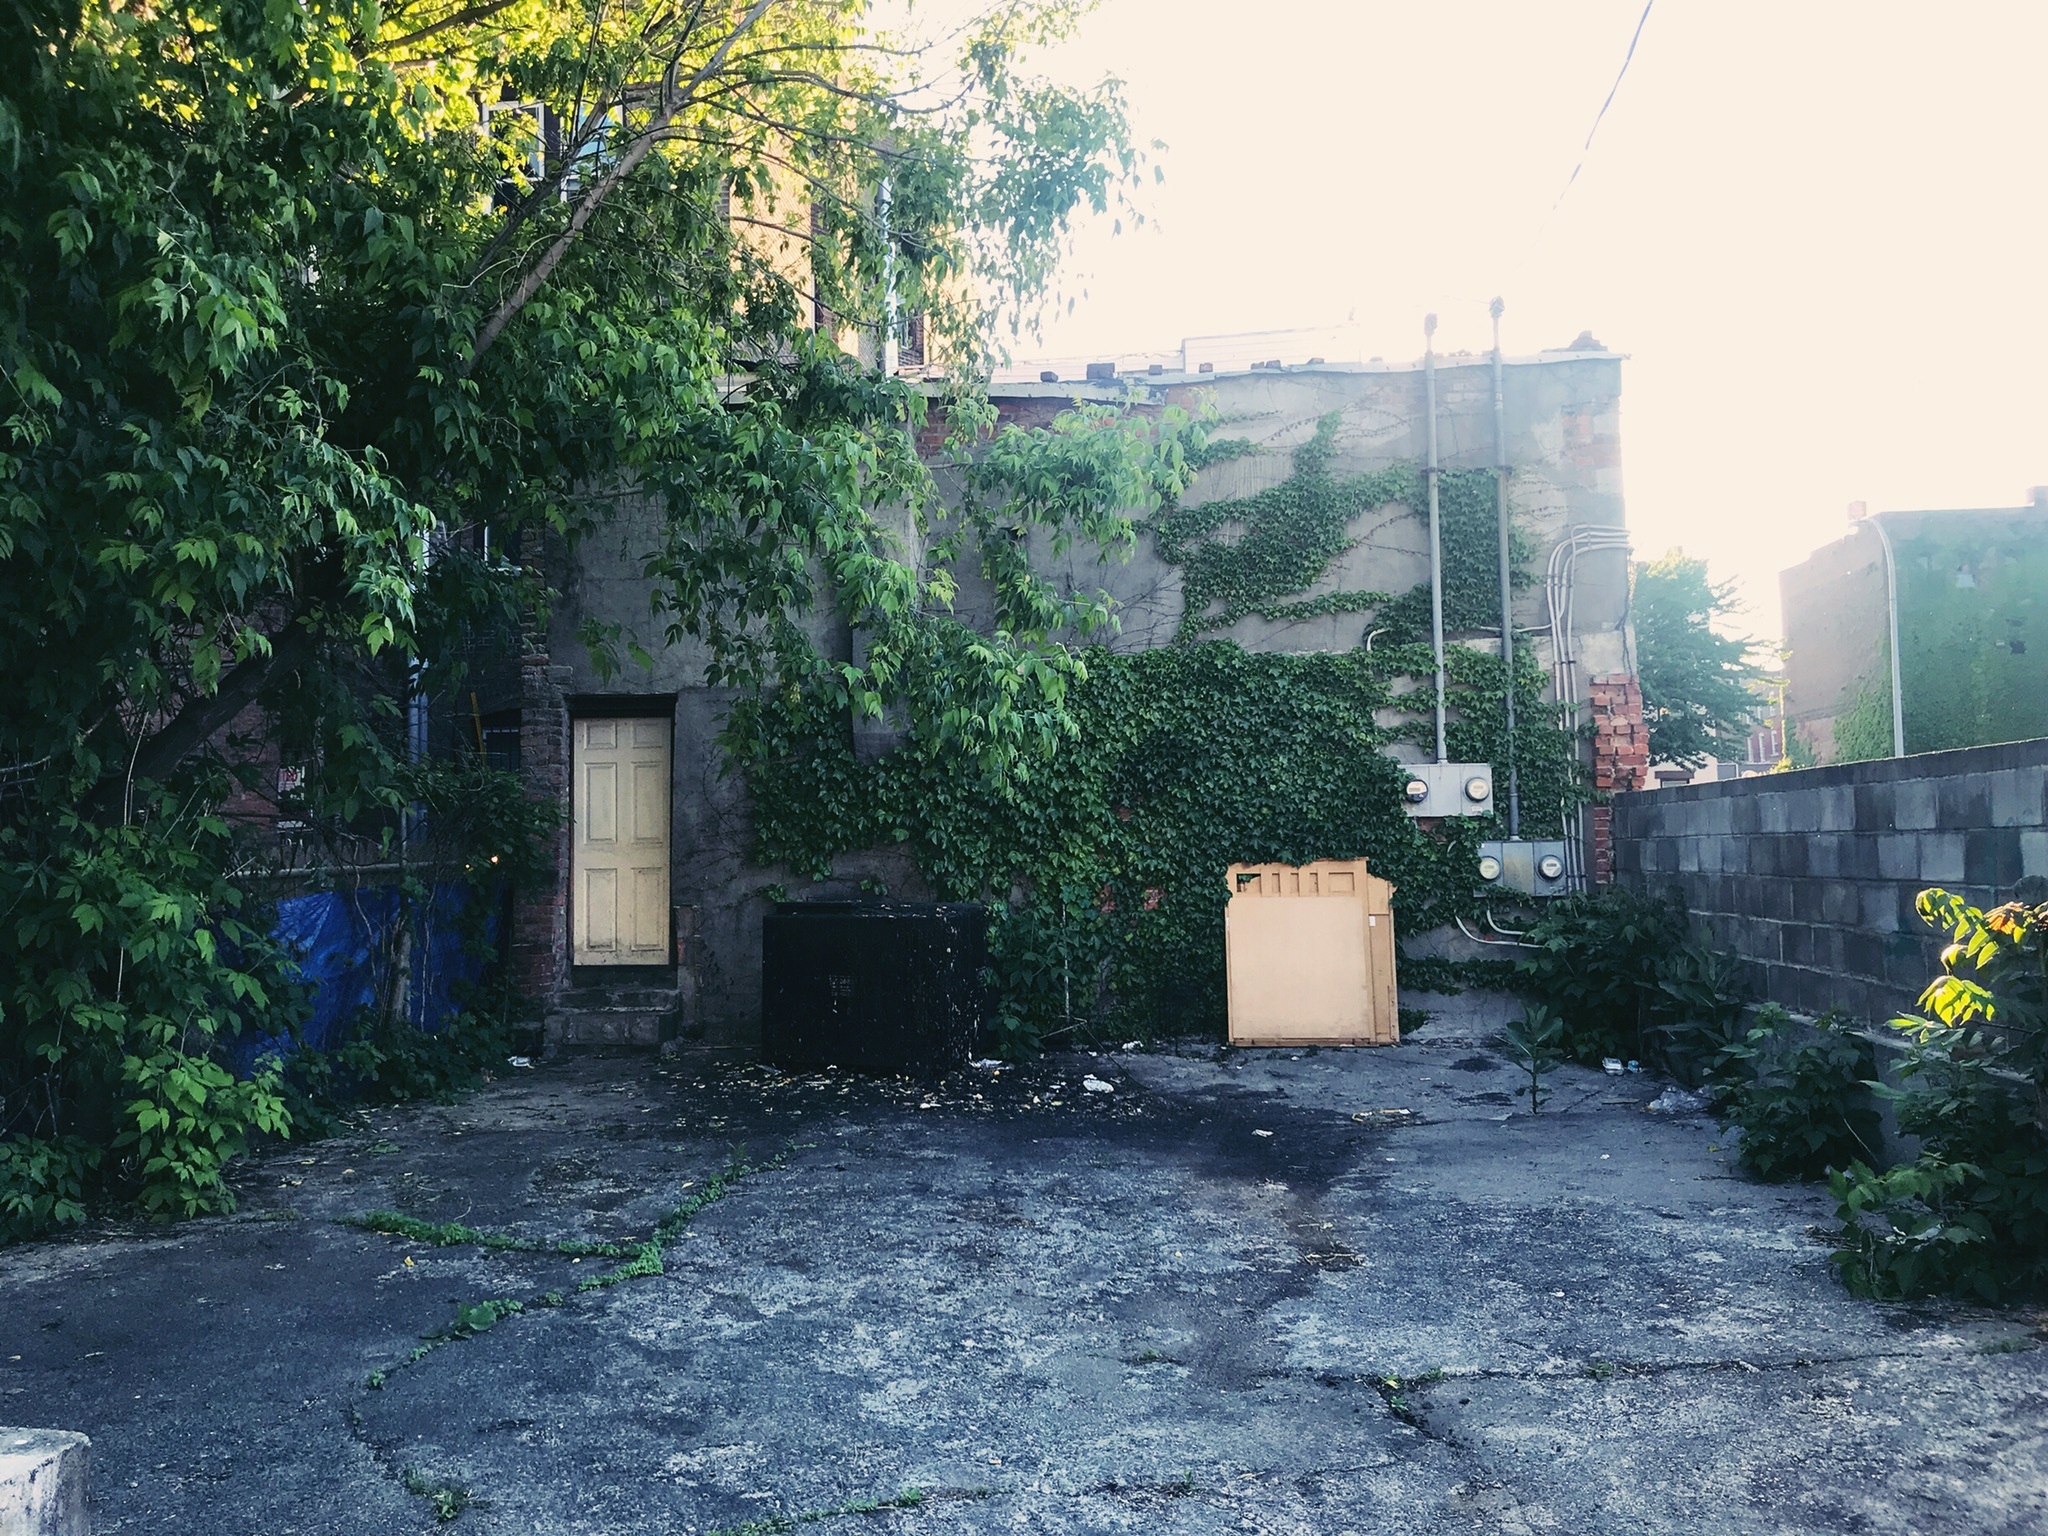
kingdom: Plantae
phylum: Tracheophyta
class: Magnoliopsida
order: Sapindales
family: Sapindaceae
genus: Acer
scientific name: Acer negundo
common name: Ashleaf maple
